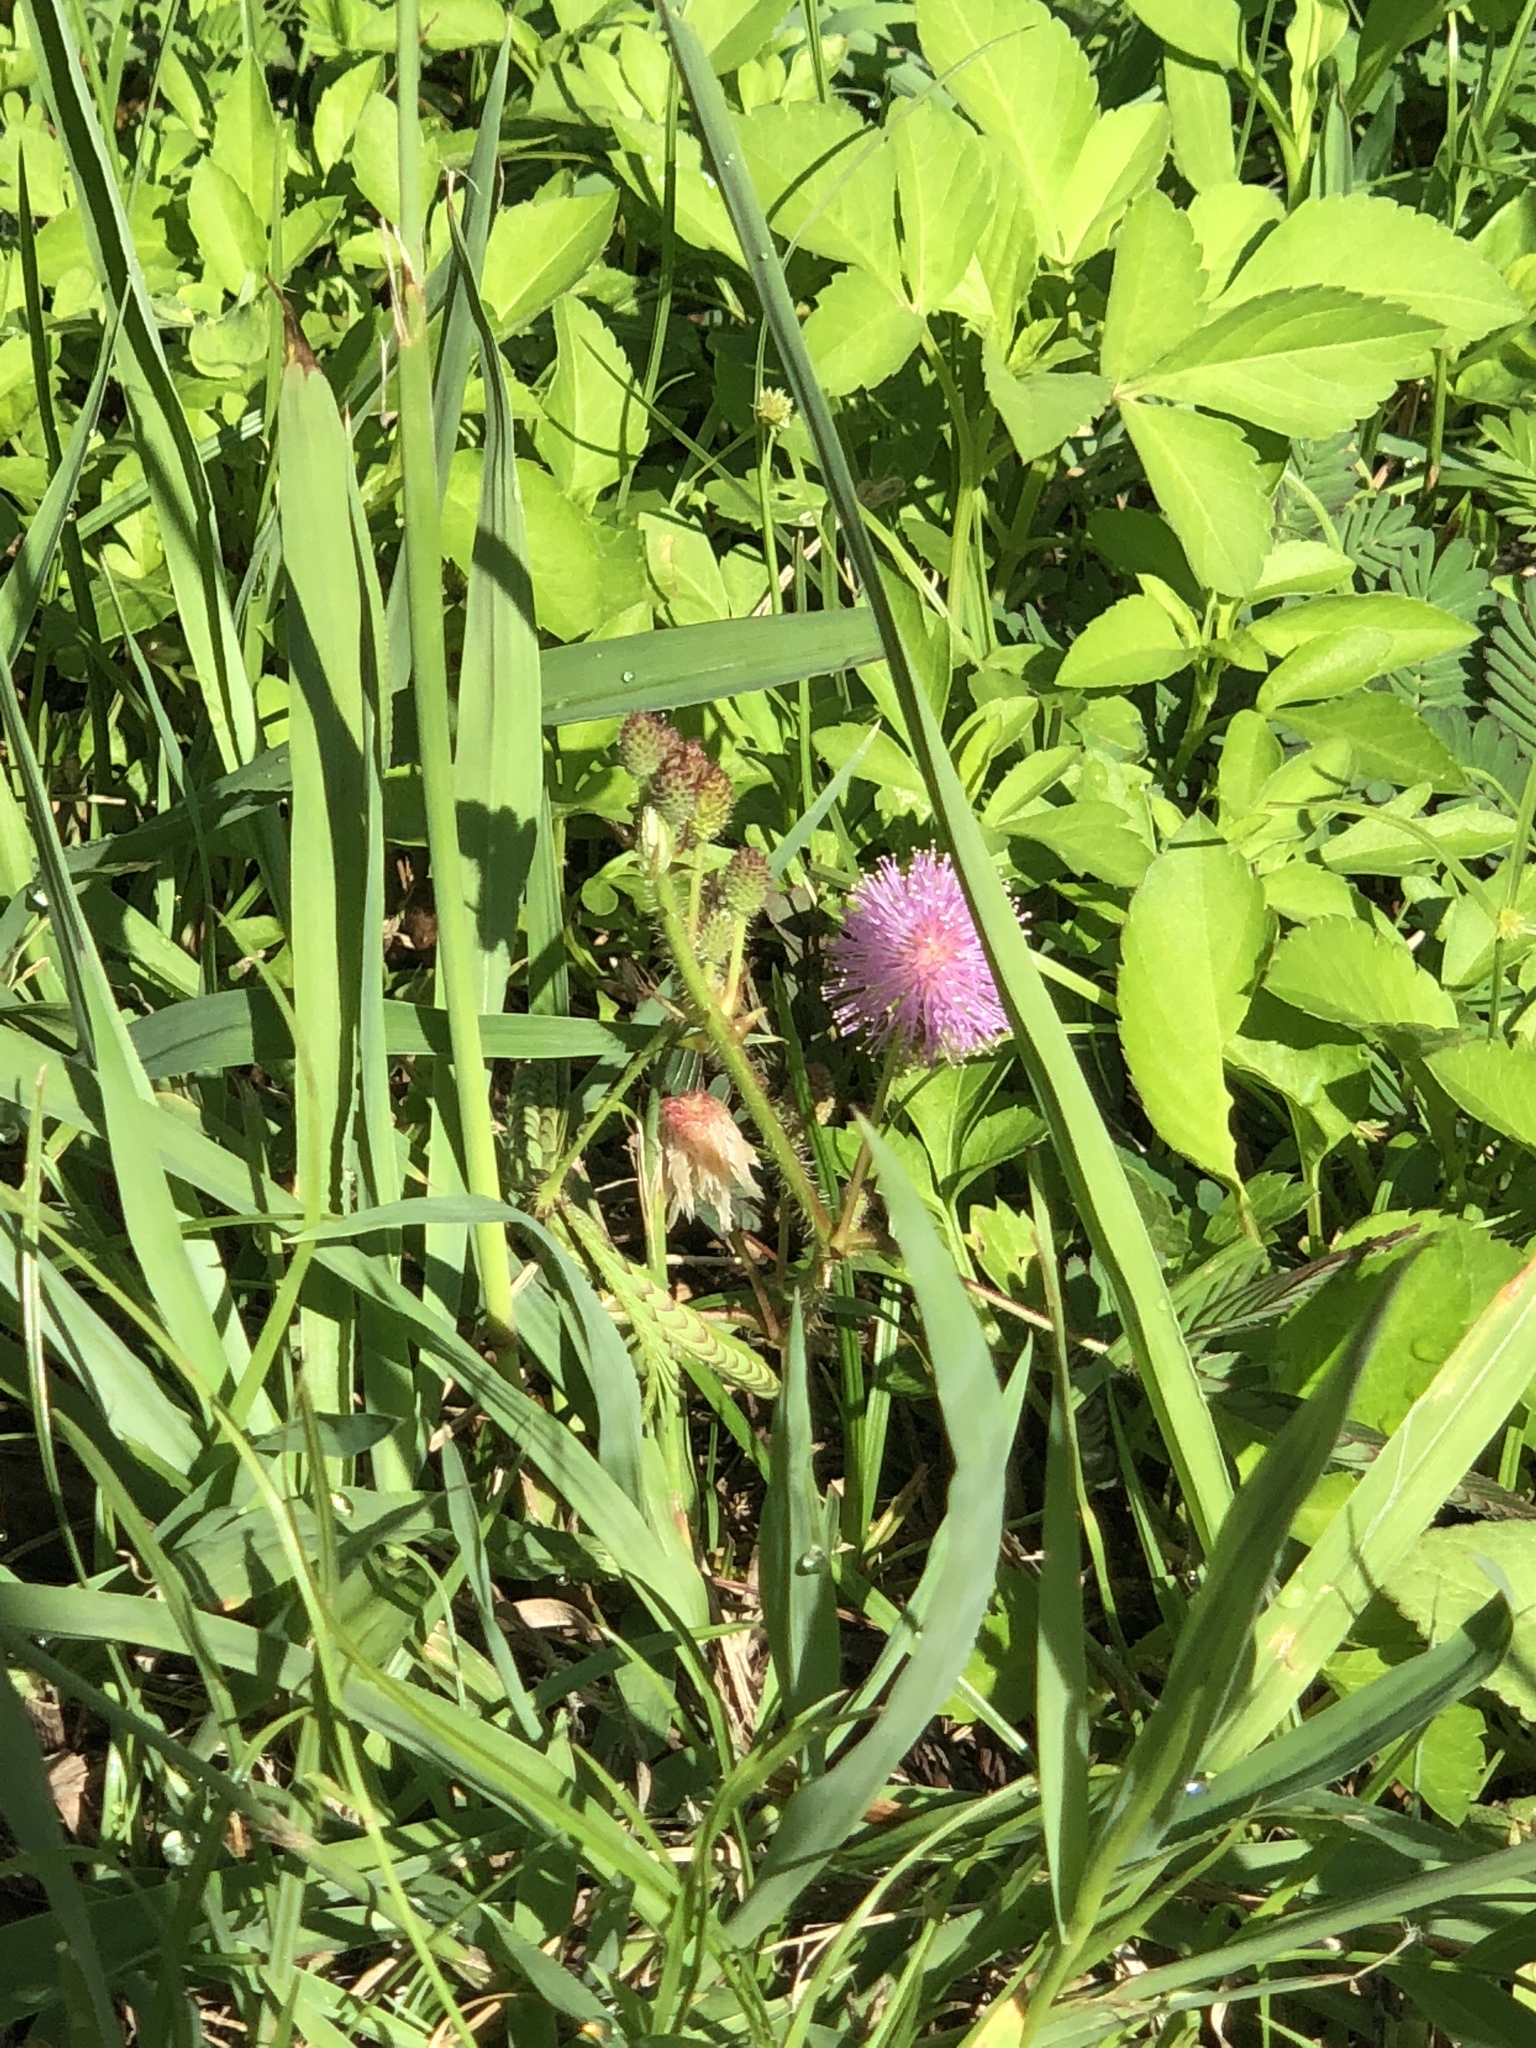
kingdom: Plantae
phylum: Tracheophyta
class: Magnoliopsida
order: Fabales
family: Fabaceae
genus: Mimosa
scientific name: Mimosa pudica
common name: Sensitive plant
